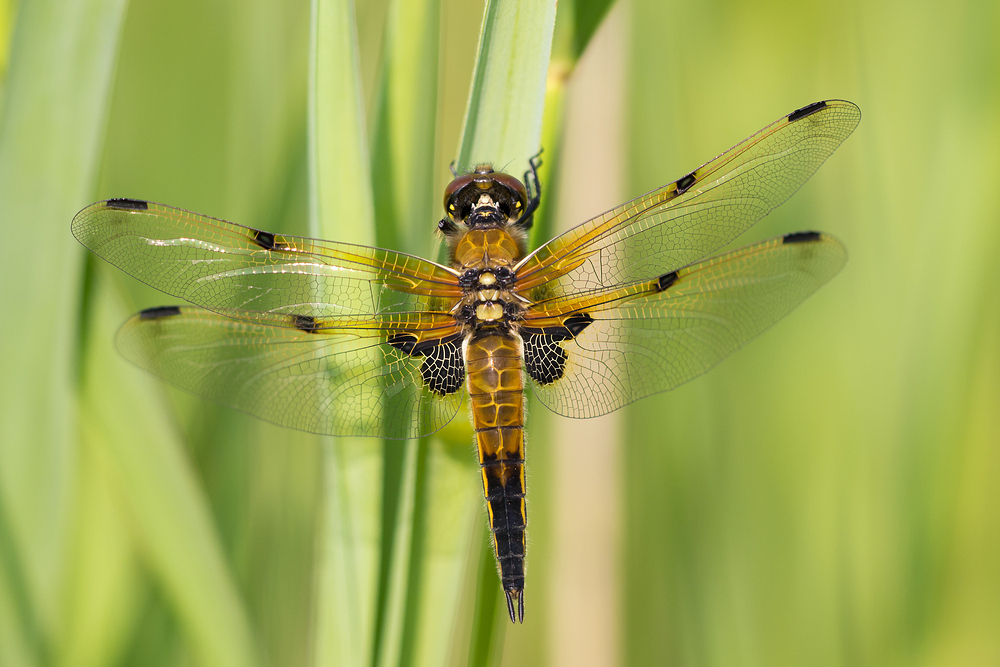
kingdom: Animalia
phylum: Arthropoda
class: Insecta
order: Odonata
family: Libellulidae
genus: Libellula
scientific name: Libellula quadrimaculata
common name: Four-spotted chaser
